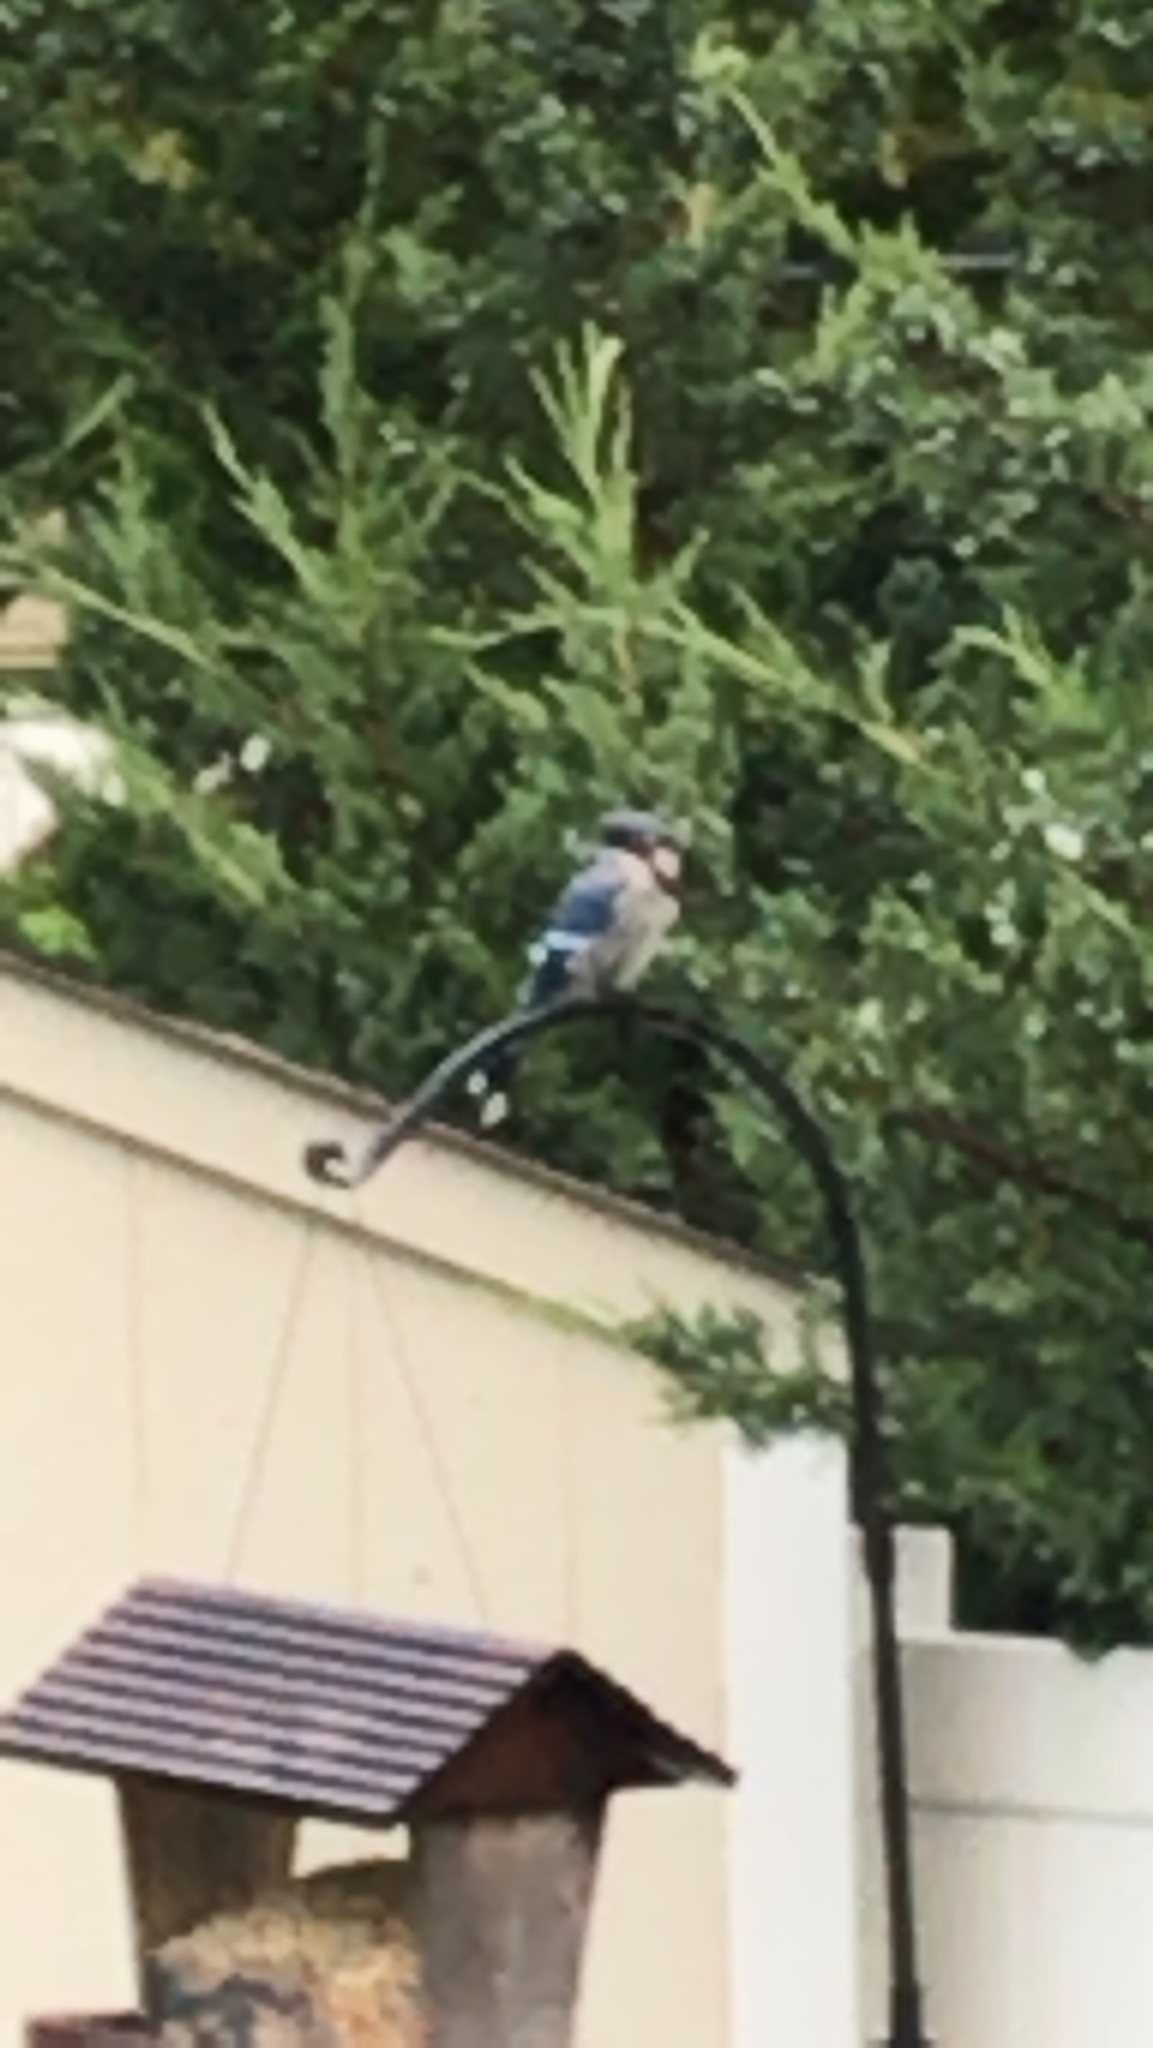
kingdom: Animalia
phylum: Chordata
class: Aves
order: Passeriformes
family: Corvidae
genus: Cyanocitta
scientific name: Cyanocitta cristata
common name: Blue jay
